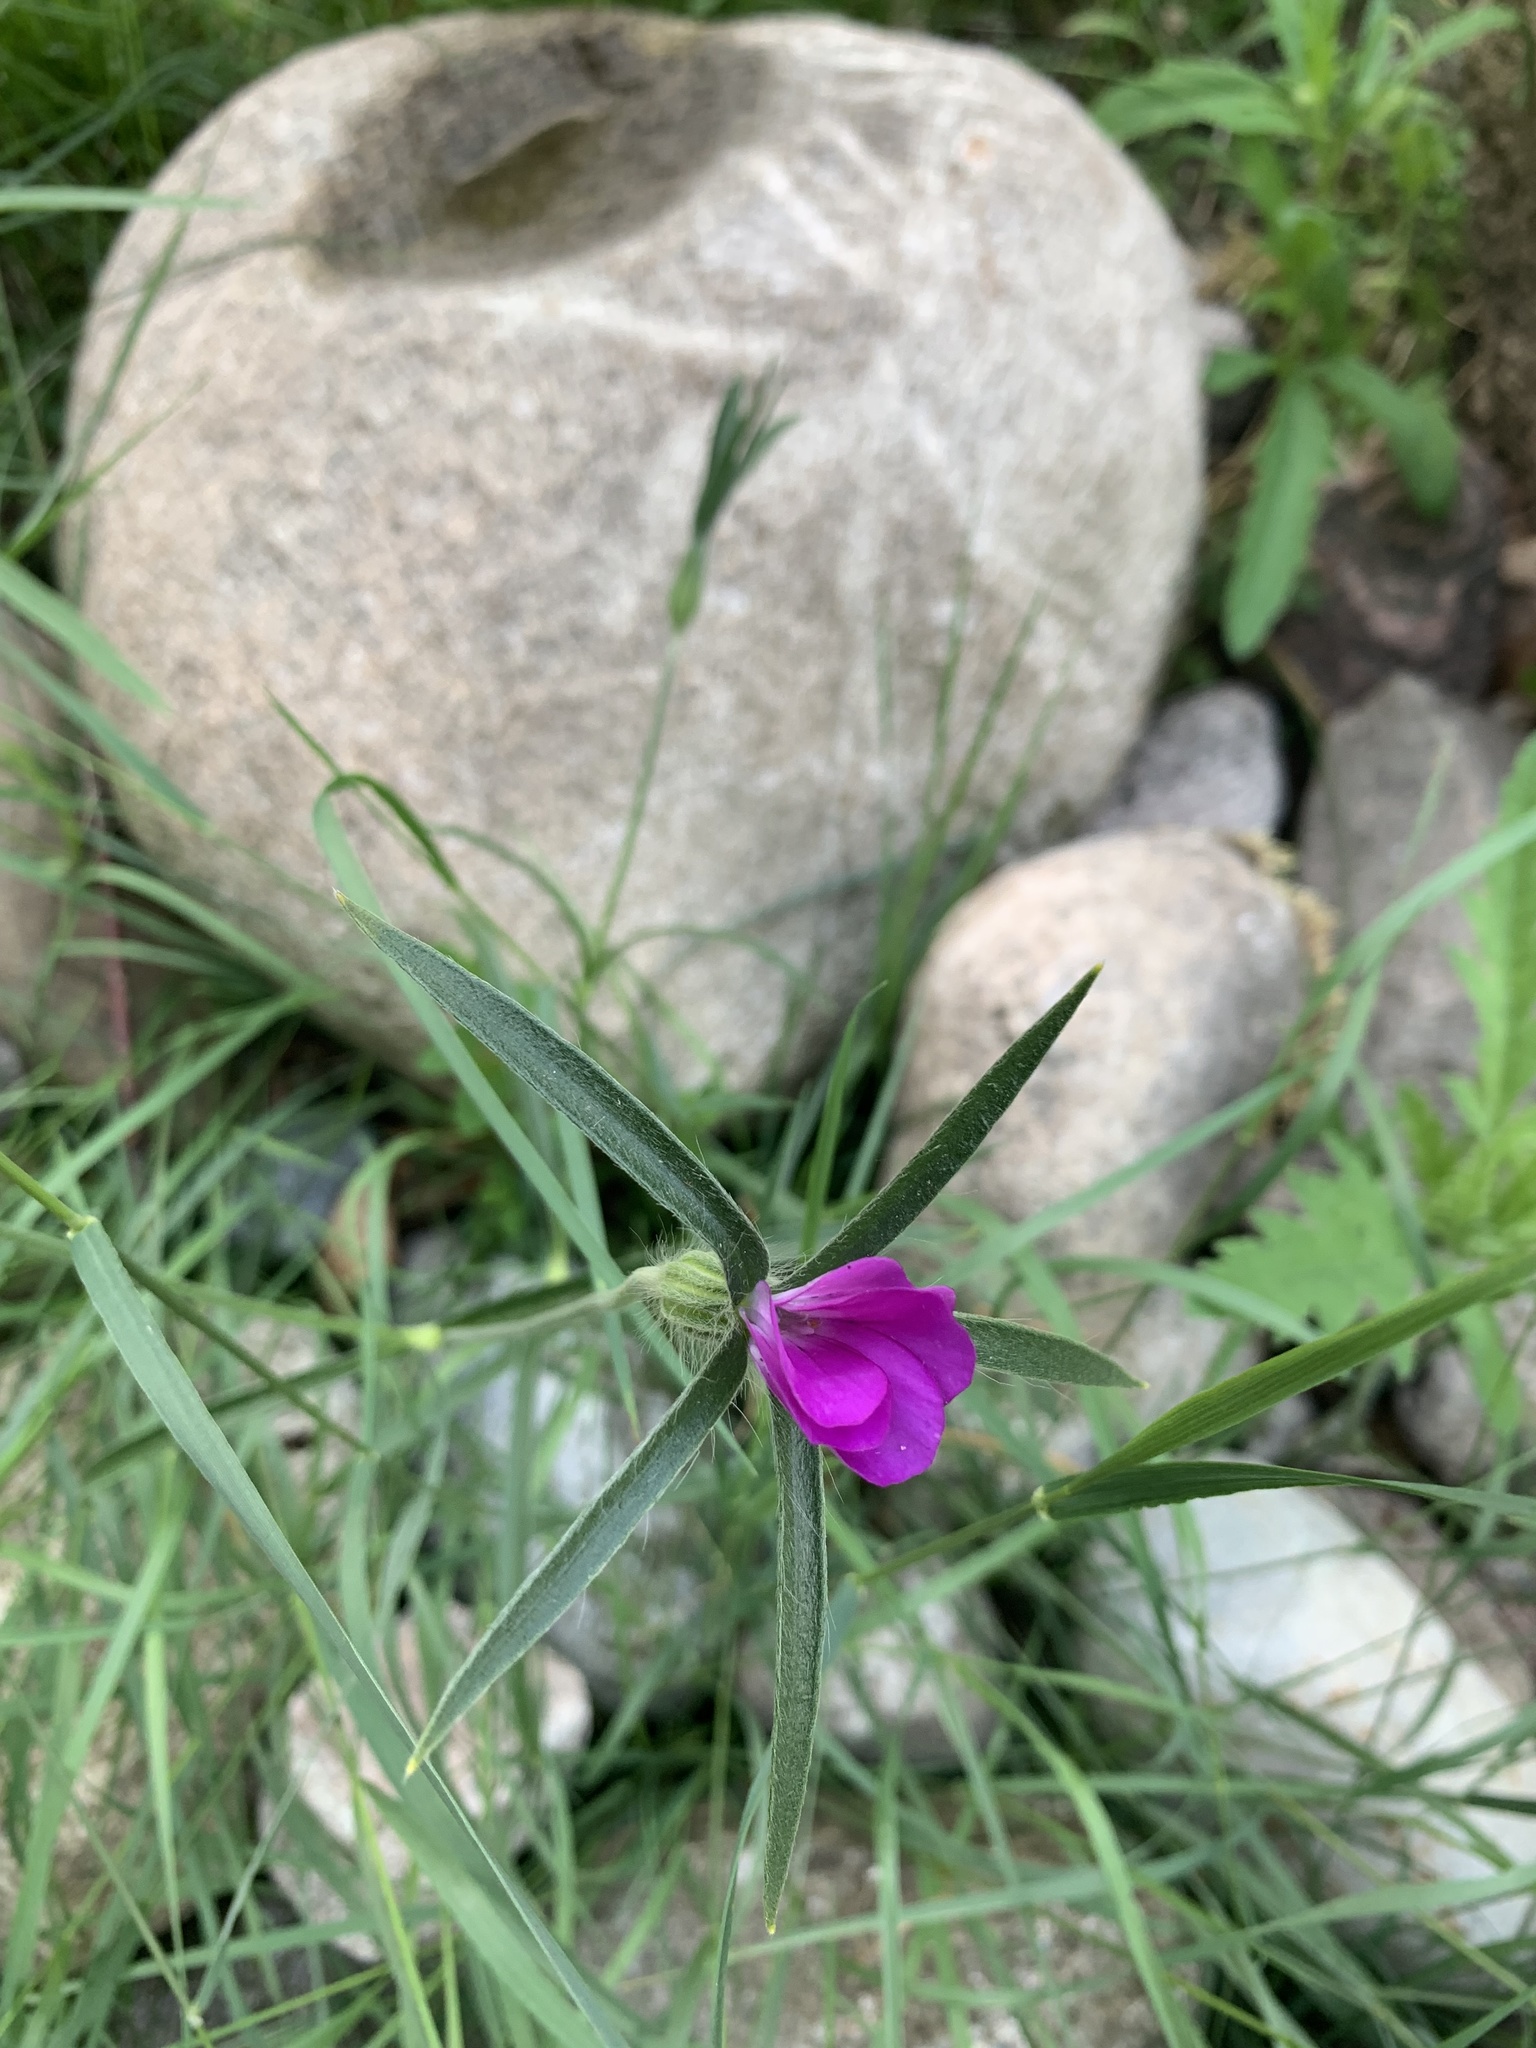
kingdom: Plantae
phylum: Tracheophyta
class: Magnoliopsida
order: Caryophyllales
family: Caryophyllaceae
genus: Agrostemma
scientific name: Agrostemma githago
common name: Common corncockle
